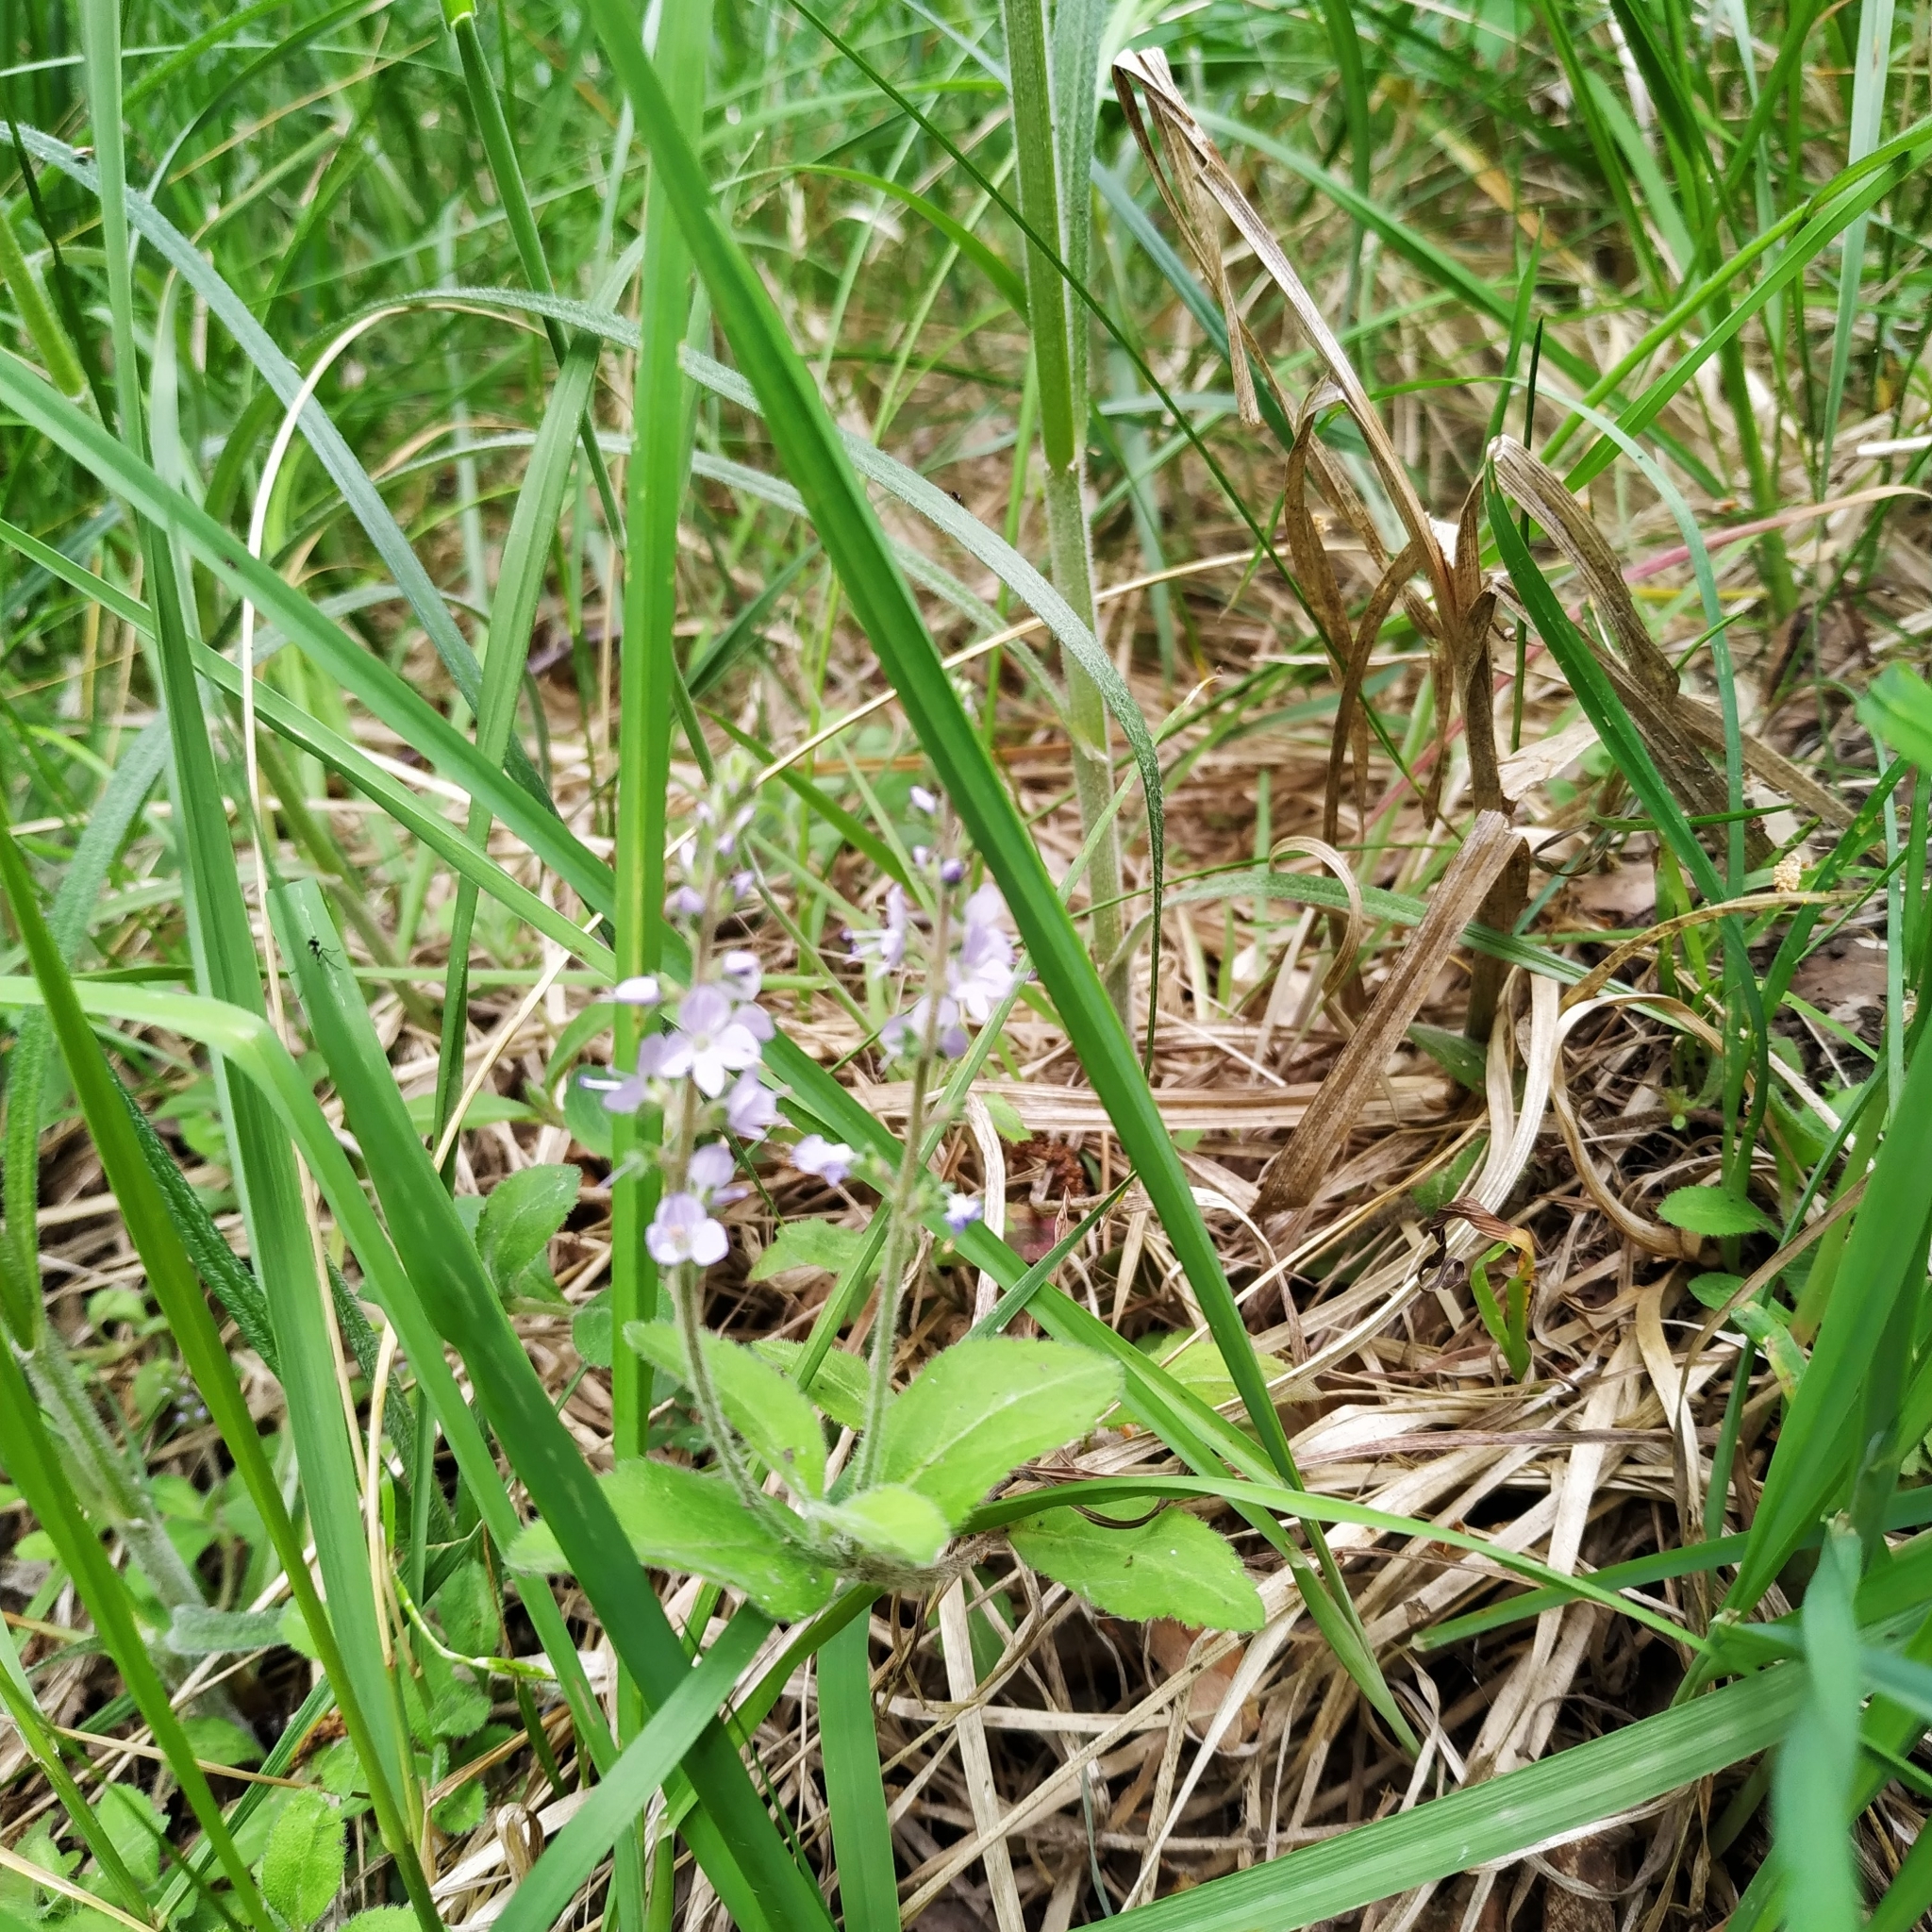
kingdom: Plantae
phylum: Tracheophyta
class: Magnoliopsida
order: Lamiales
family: Plantaginaceae
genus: Veronica
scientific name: Veronica officinalis
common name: Common speedwell
